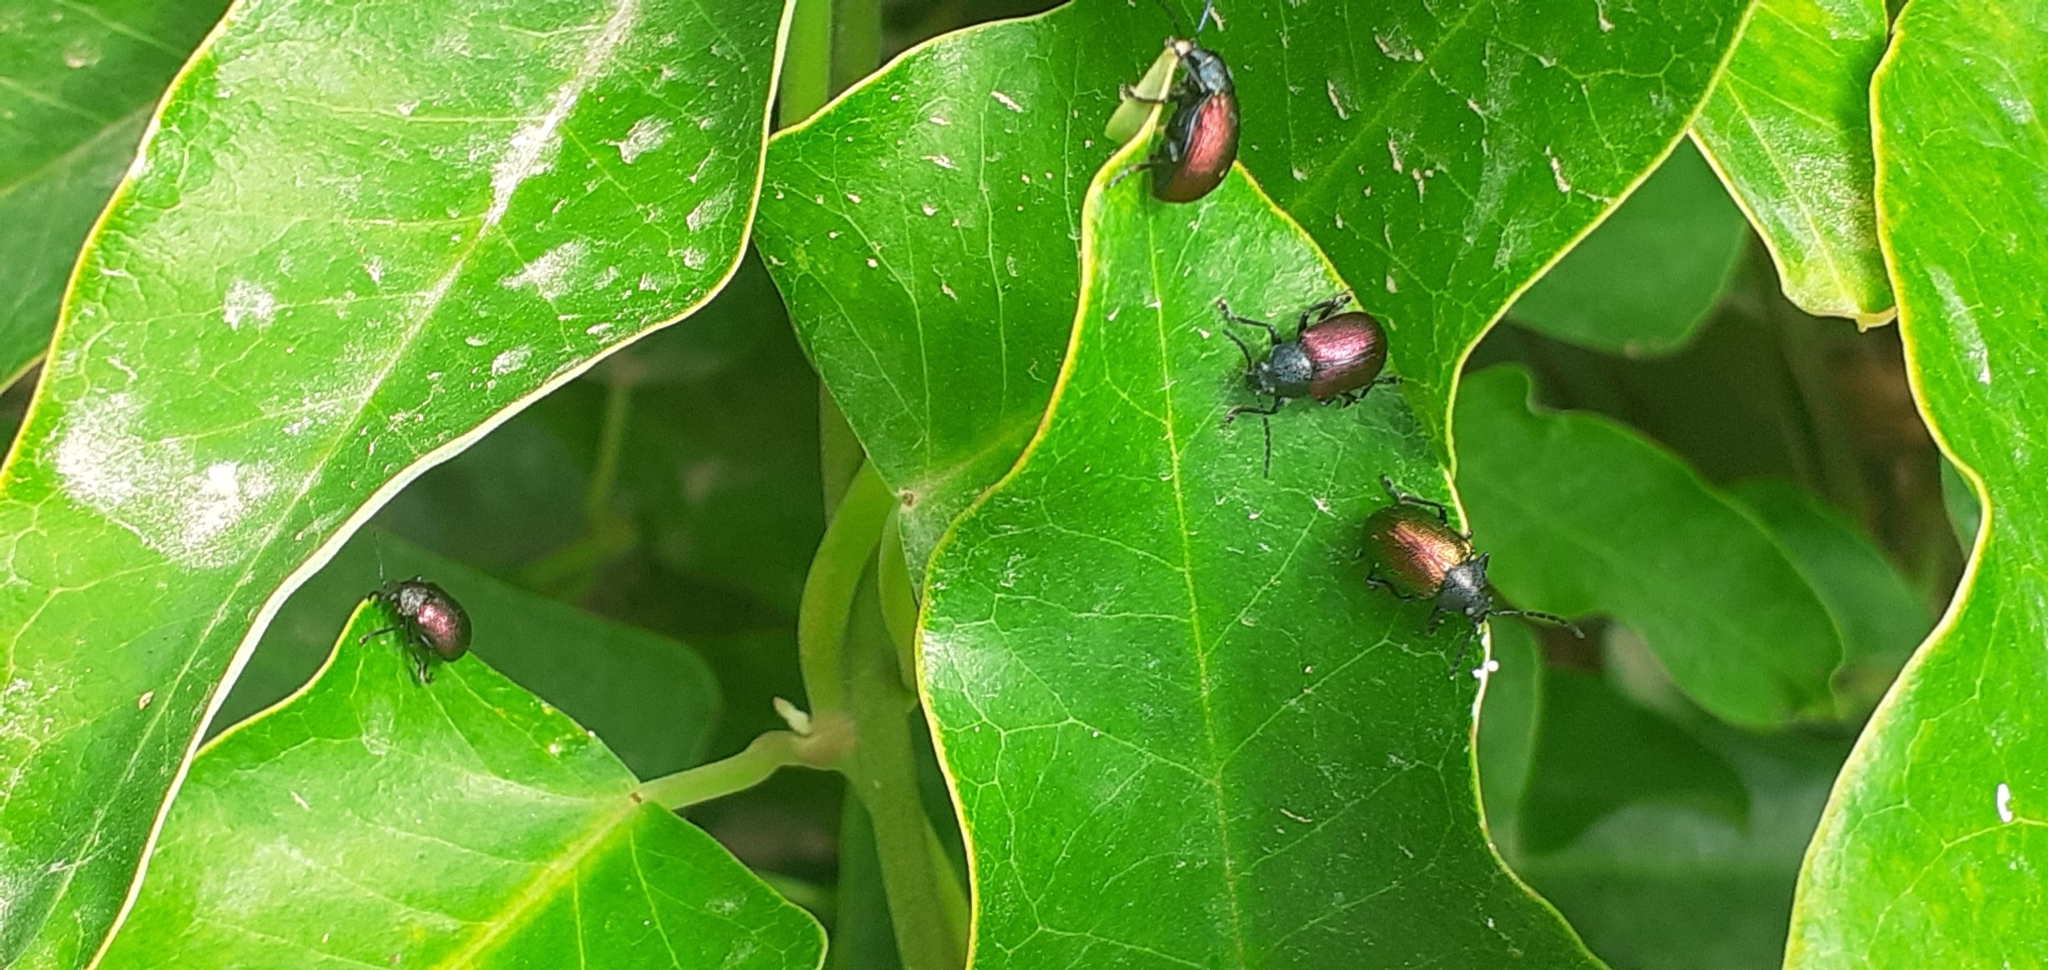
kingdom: Animalia
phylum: Arthropoda
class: Insecta
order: Coleoptera
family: Chrysomelidae
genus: Freudeita
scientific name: Freudeita
